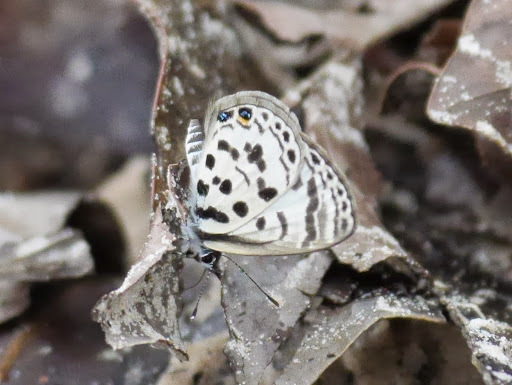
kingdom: Animalia
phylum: Arthropoda
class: Insecta
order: Lepidoptera
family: Lycaenidae
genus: Azanus
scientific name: Azanus mirza
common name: Mirza babul blue
